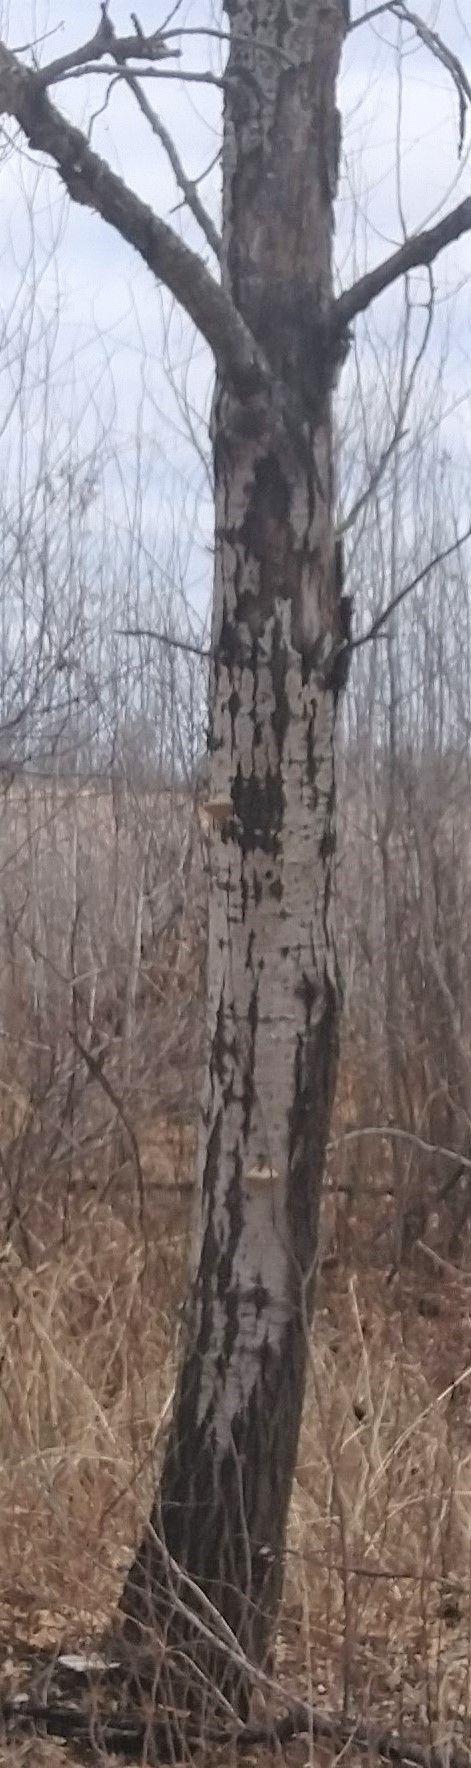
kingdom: Fungi
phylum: Basidiomycota
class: Agaricomycetes
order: Polyporales
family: Polyporaceae
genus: Trametes
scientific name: Trametes gibbosa
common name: Lumpy bracket
